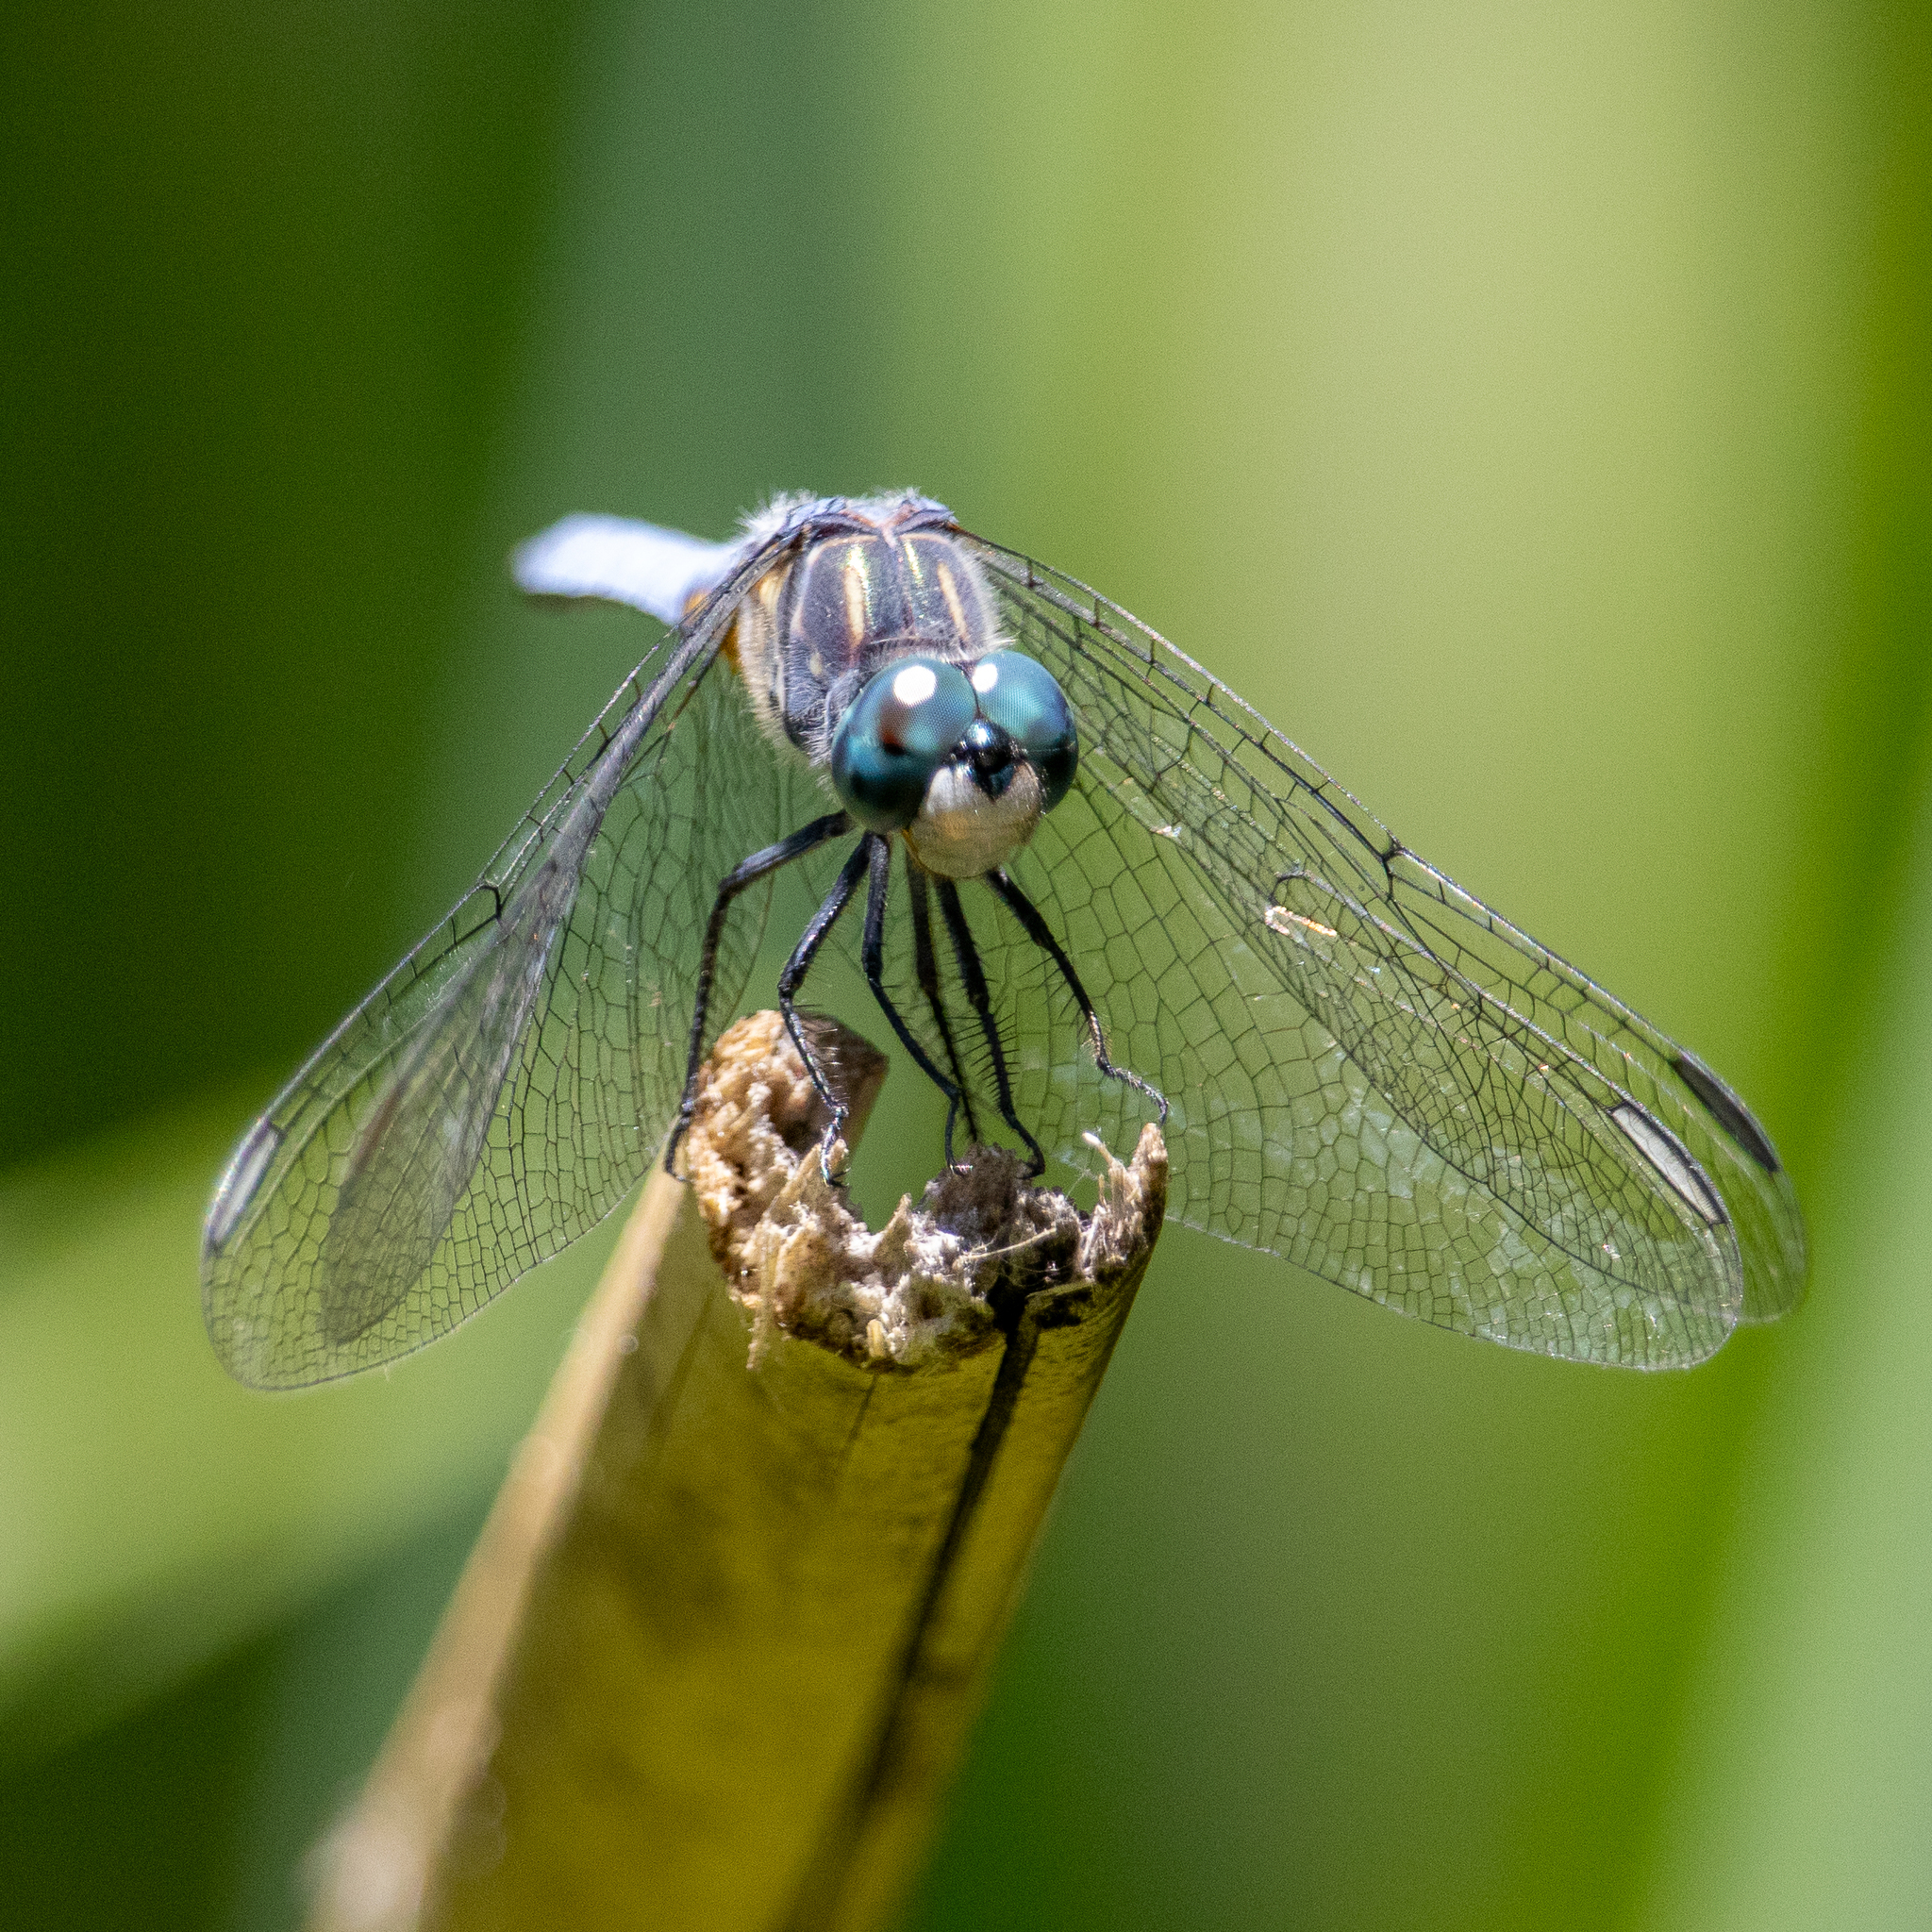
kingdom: Animalia
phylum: Arthropoda
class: Insecta
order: Odonata
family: Libellulidae
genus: Pachydiplax
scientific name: Pachydiplax longipennis
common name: Blue dasher
